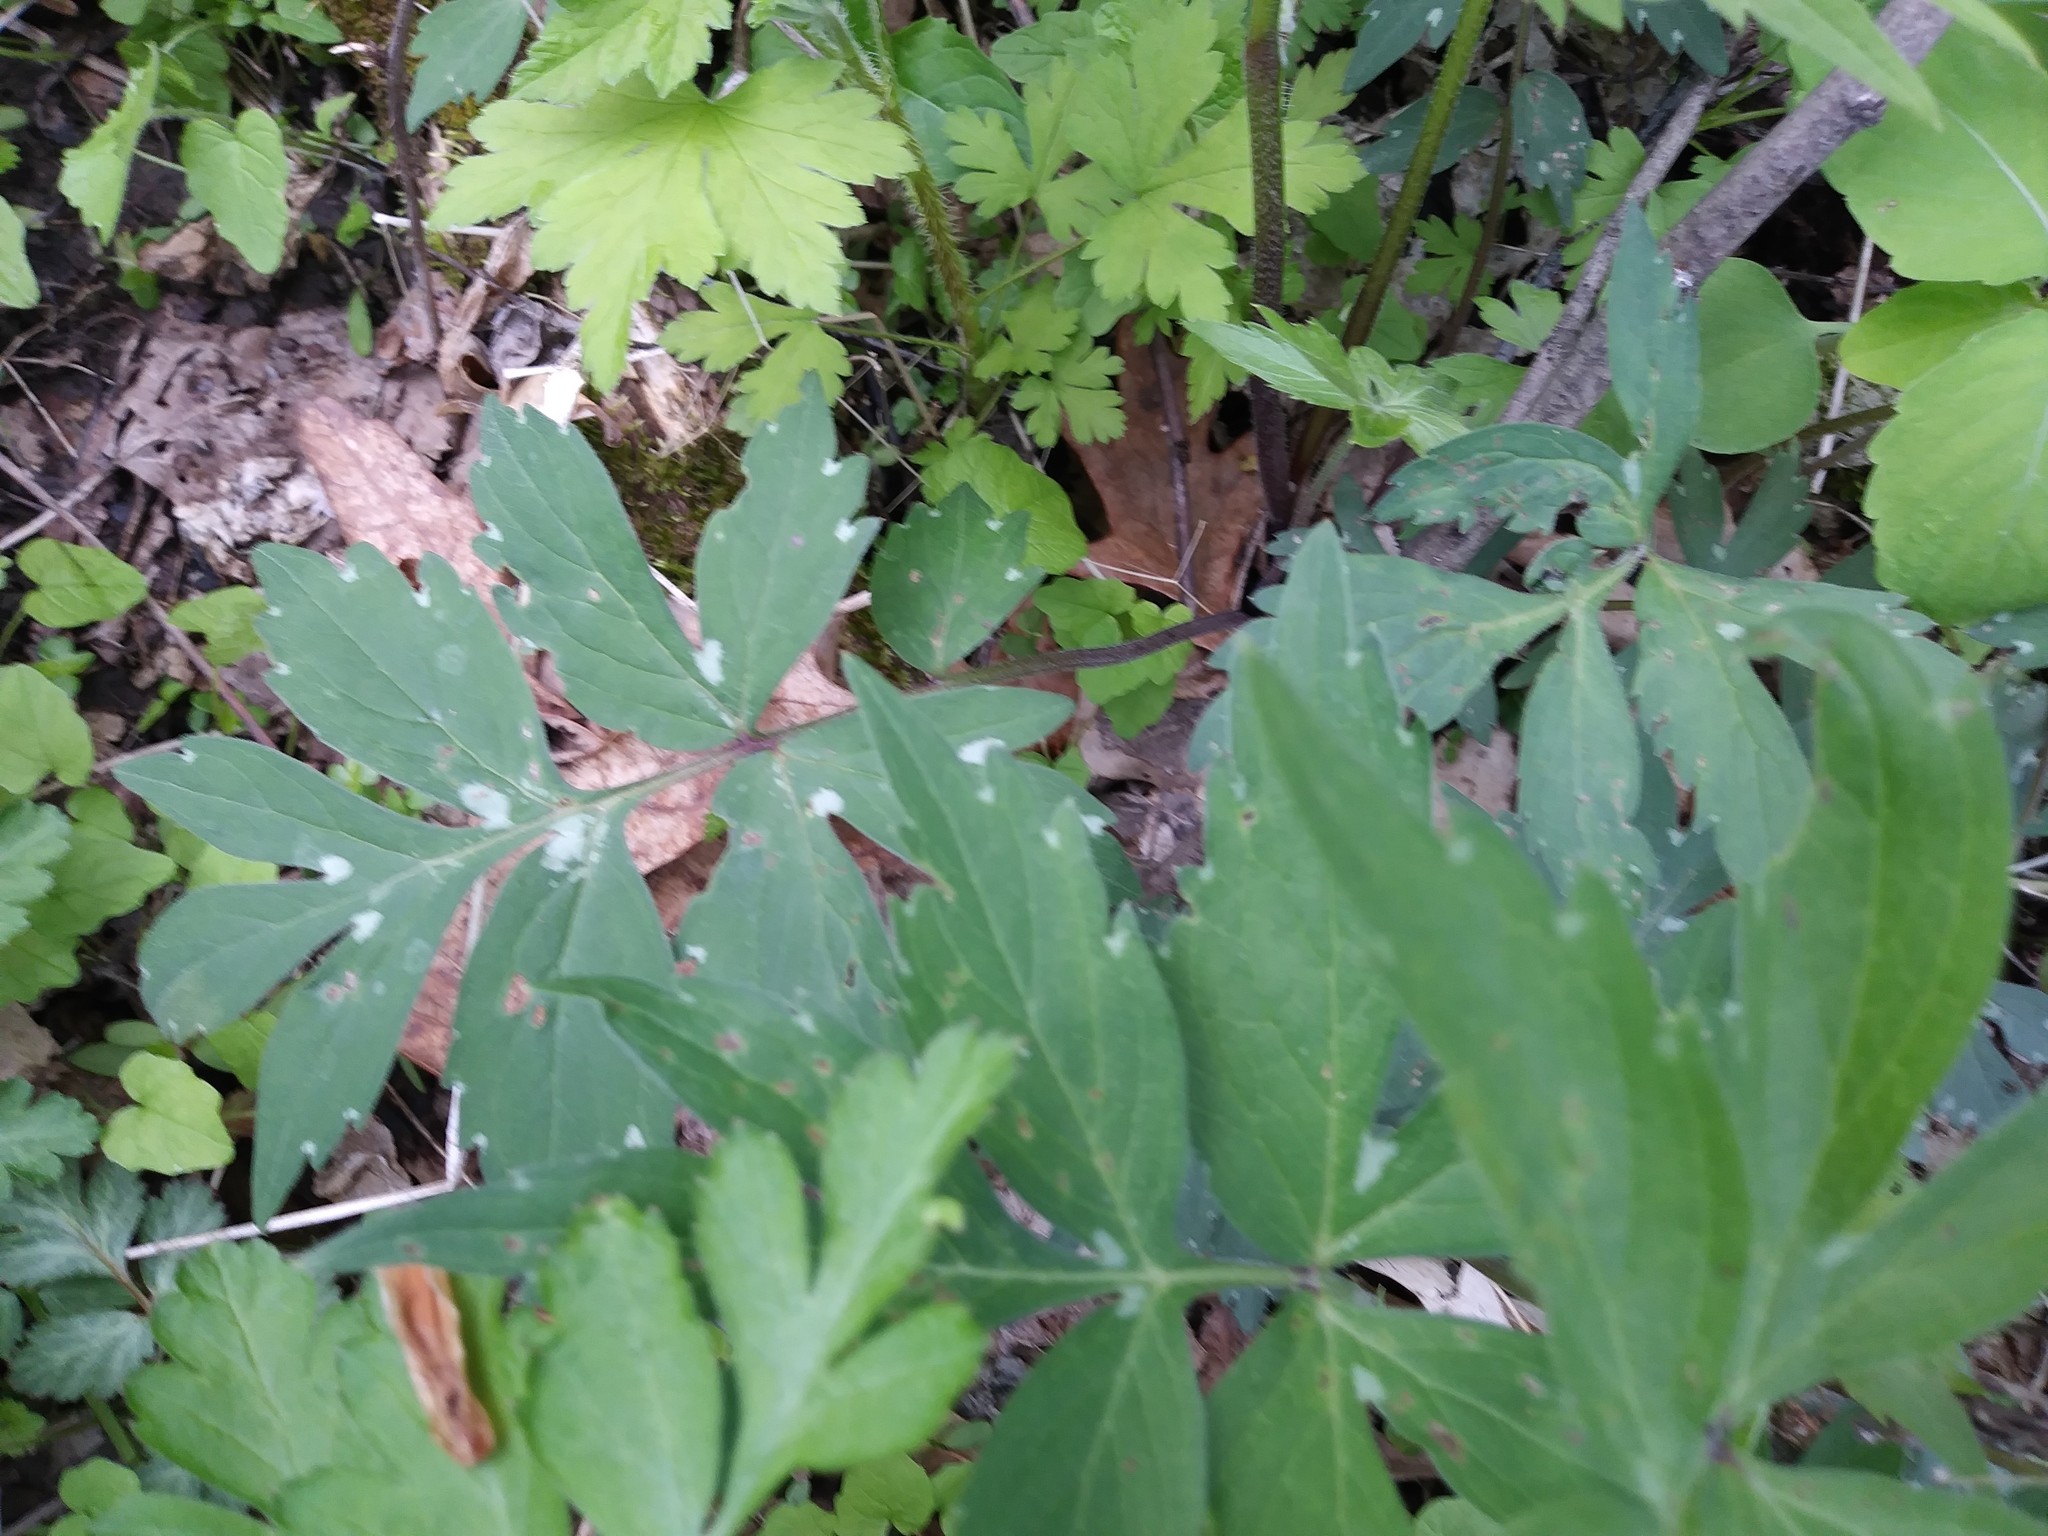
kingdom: Plantae
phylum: Tracheophyta
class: Magnoliopsida
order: Boraginales
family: Hydrophyllaceae
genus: Hydrophyllum
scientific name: Hydrophyllum virginianum
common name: Virginia waterleaf
